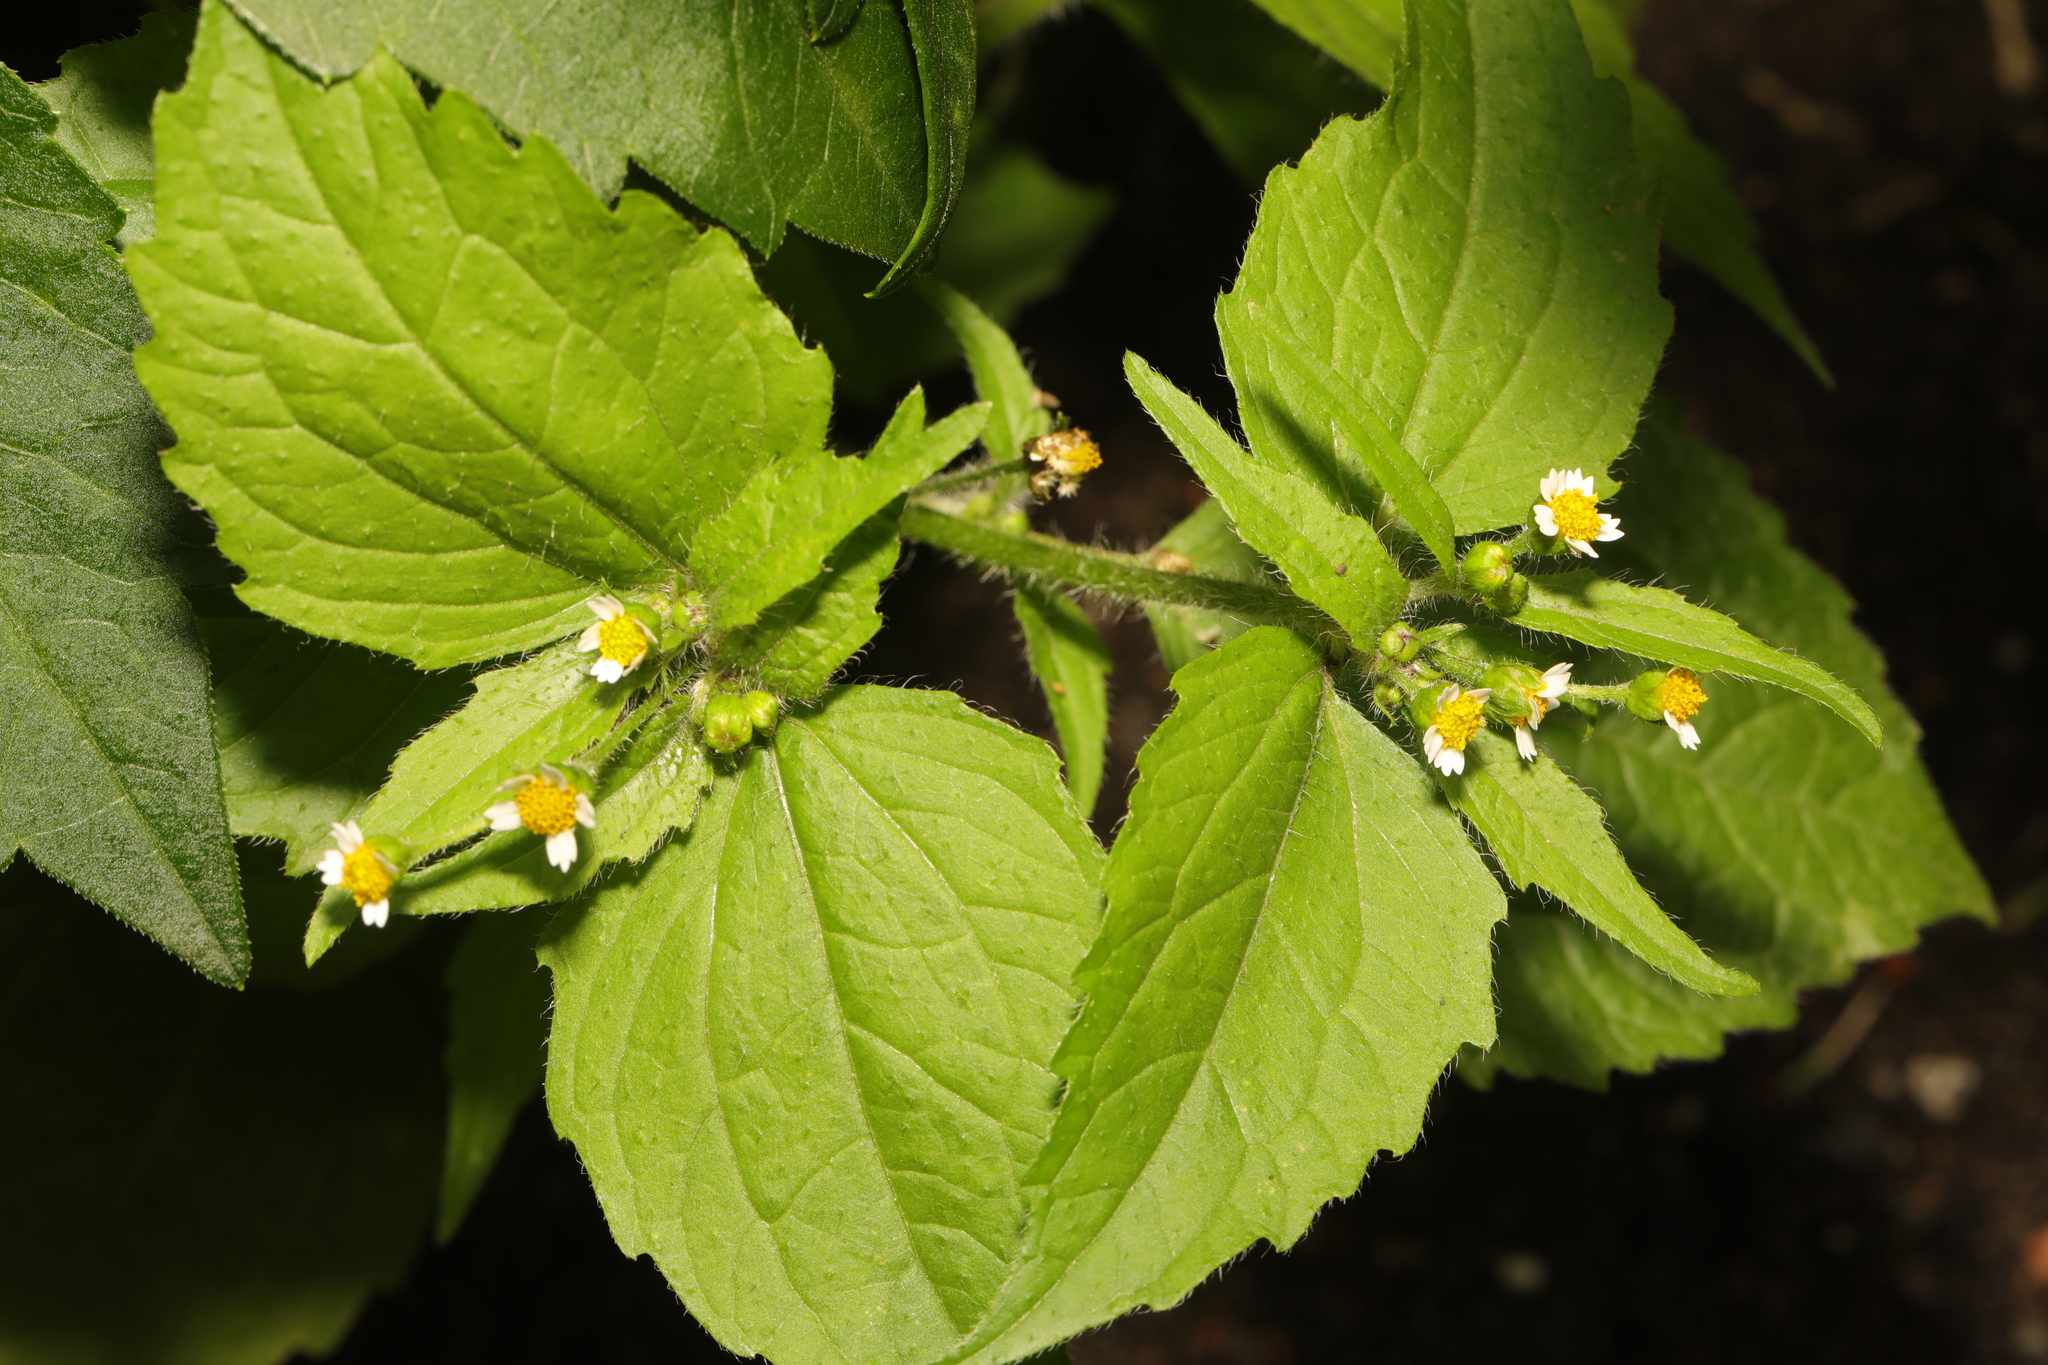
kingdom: Plantae
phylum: Tracheophyta
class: Magnoliopsida
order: Asterales
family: Asteraceae
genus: Galinsoga
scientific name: Galinsoga quadriradiata
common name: Shaggy soldier
